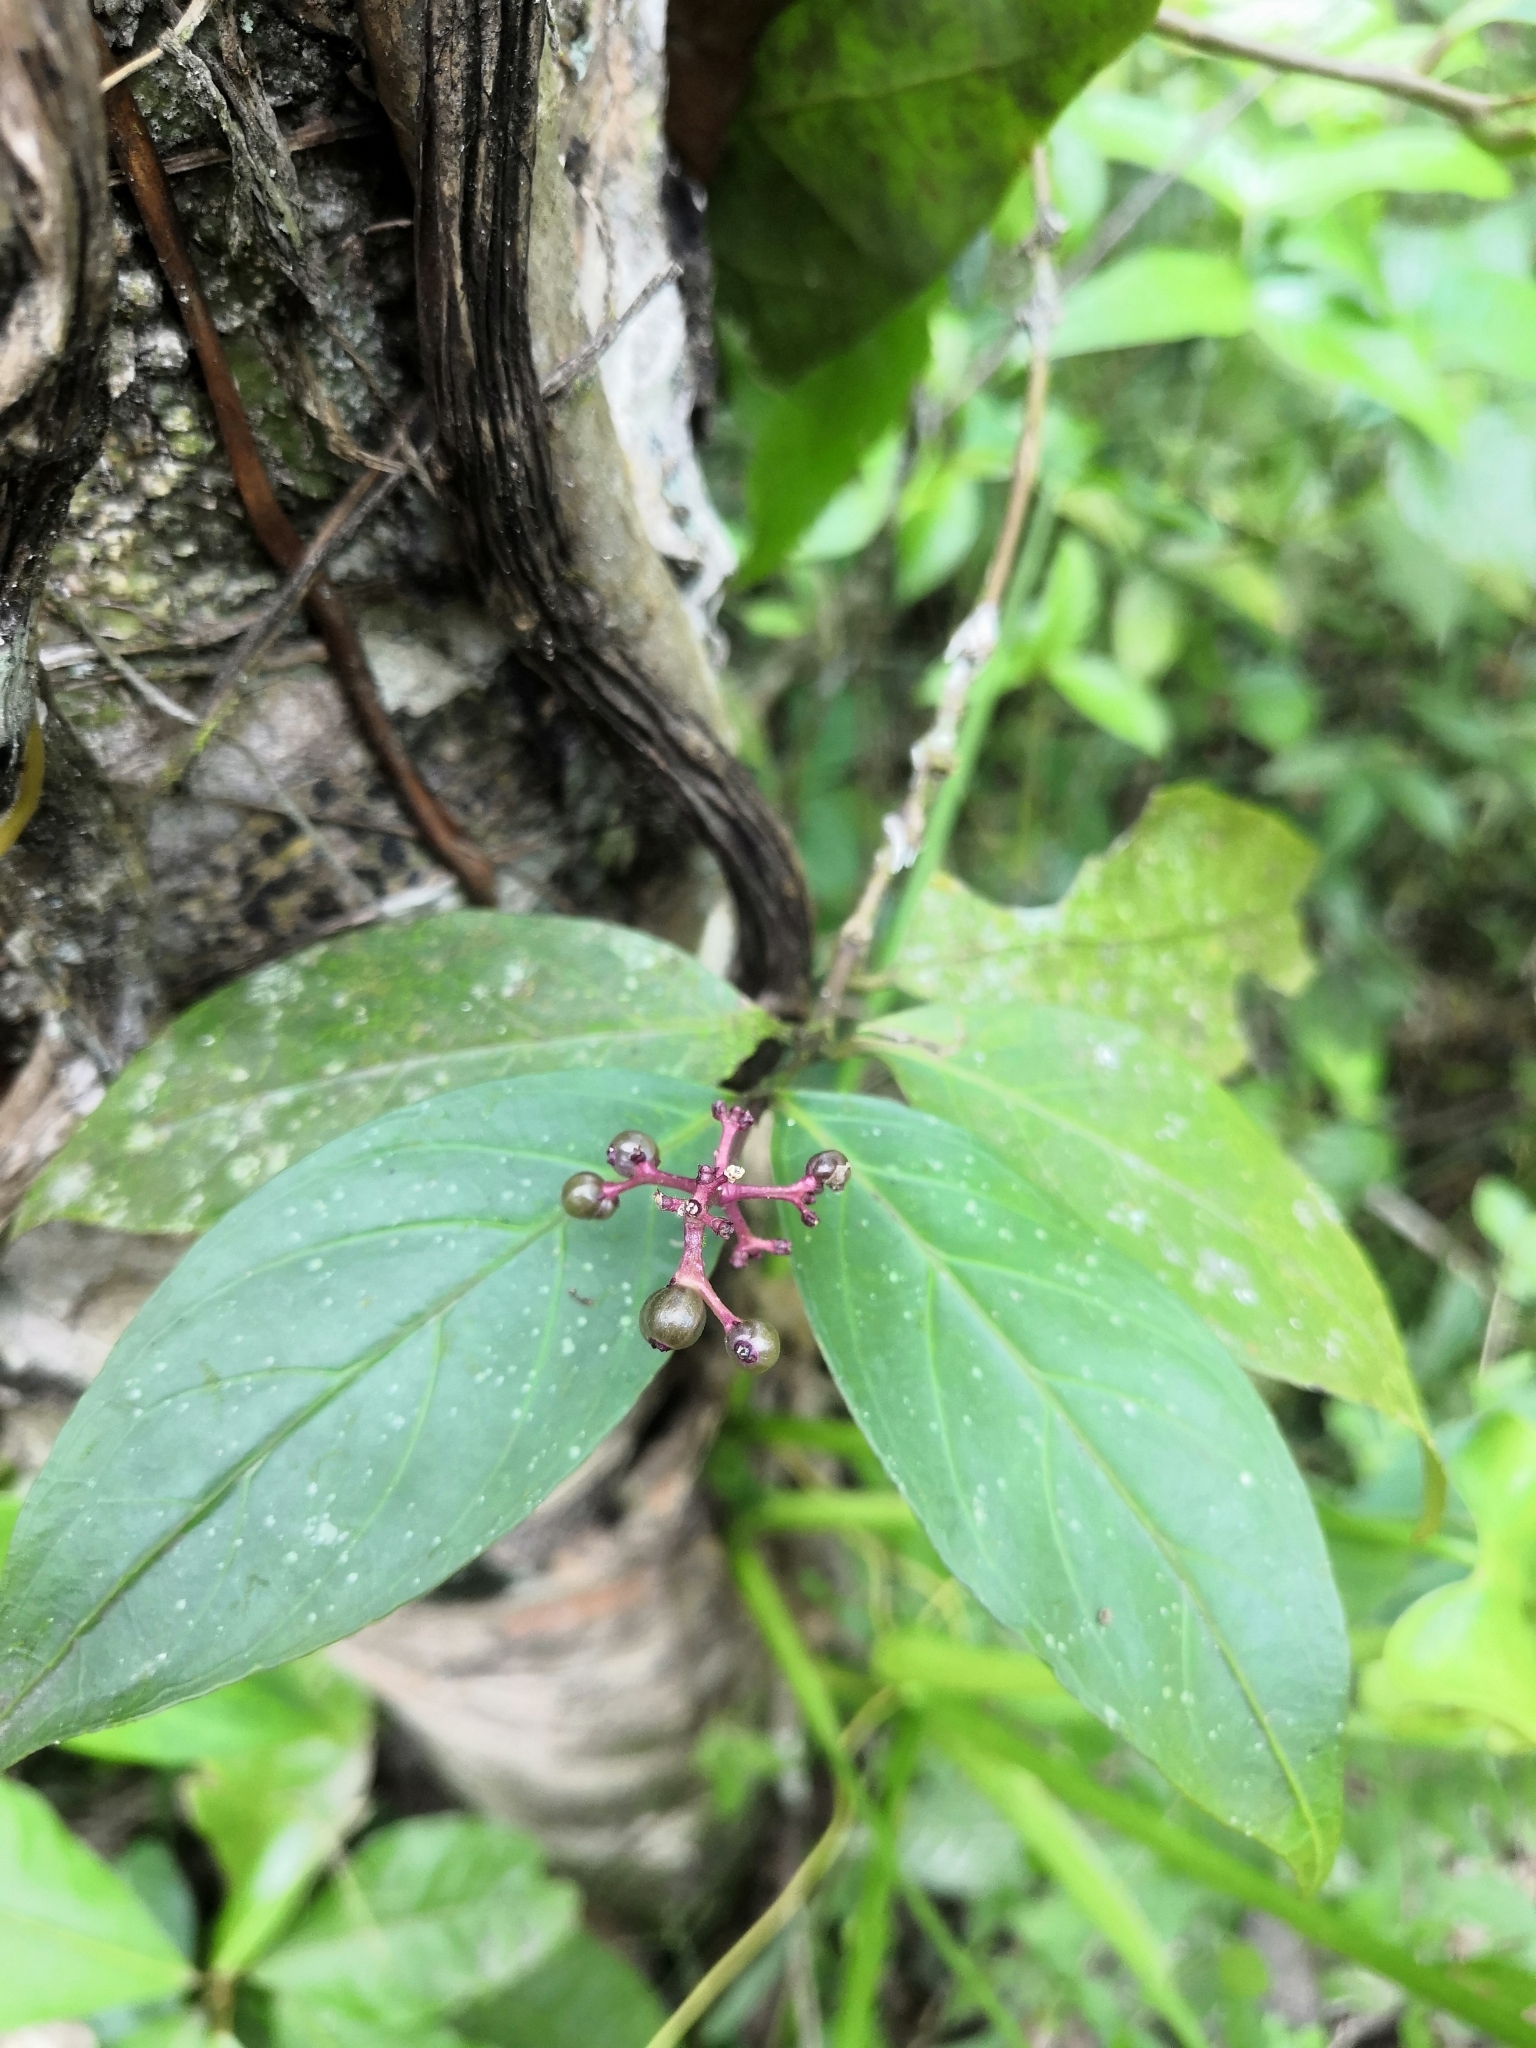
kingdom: Plantae
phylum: Tracheophyta
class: Magnoliopsida
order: Gentianales
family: Rubiaceae
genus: Palicourea
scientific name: Palicourea pubescens
